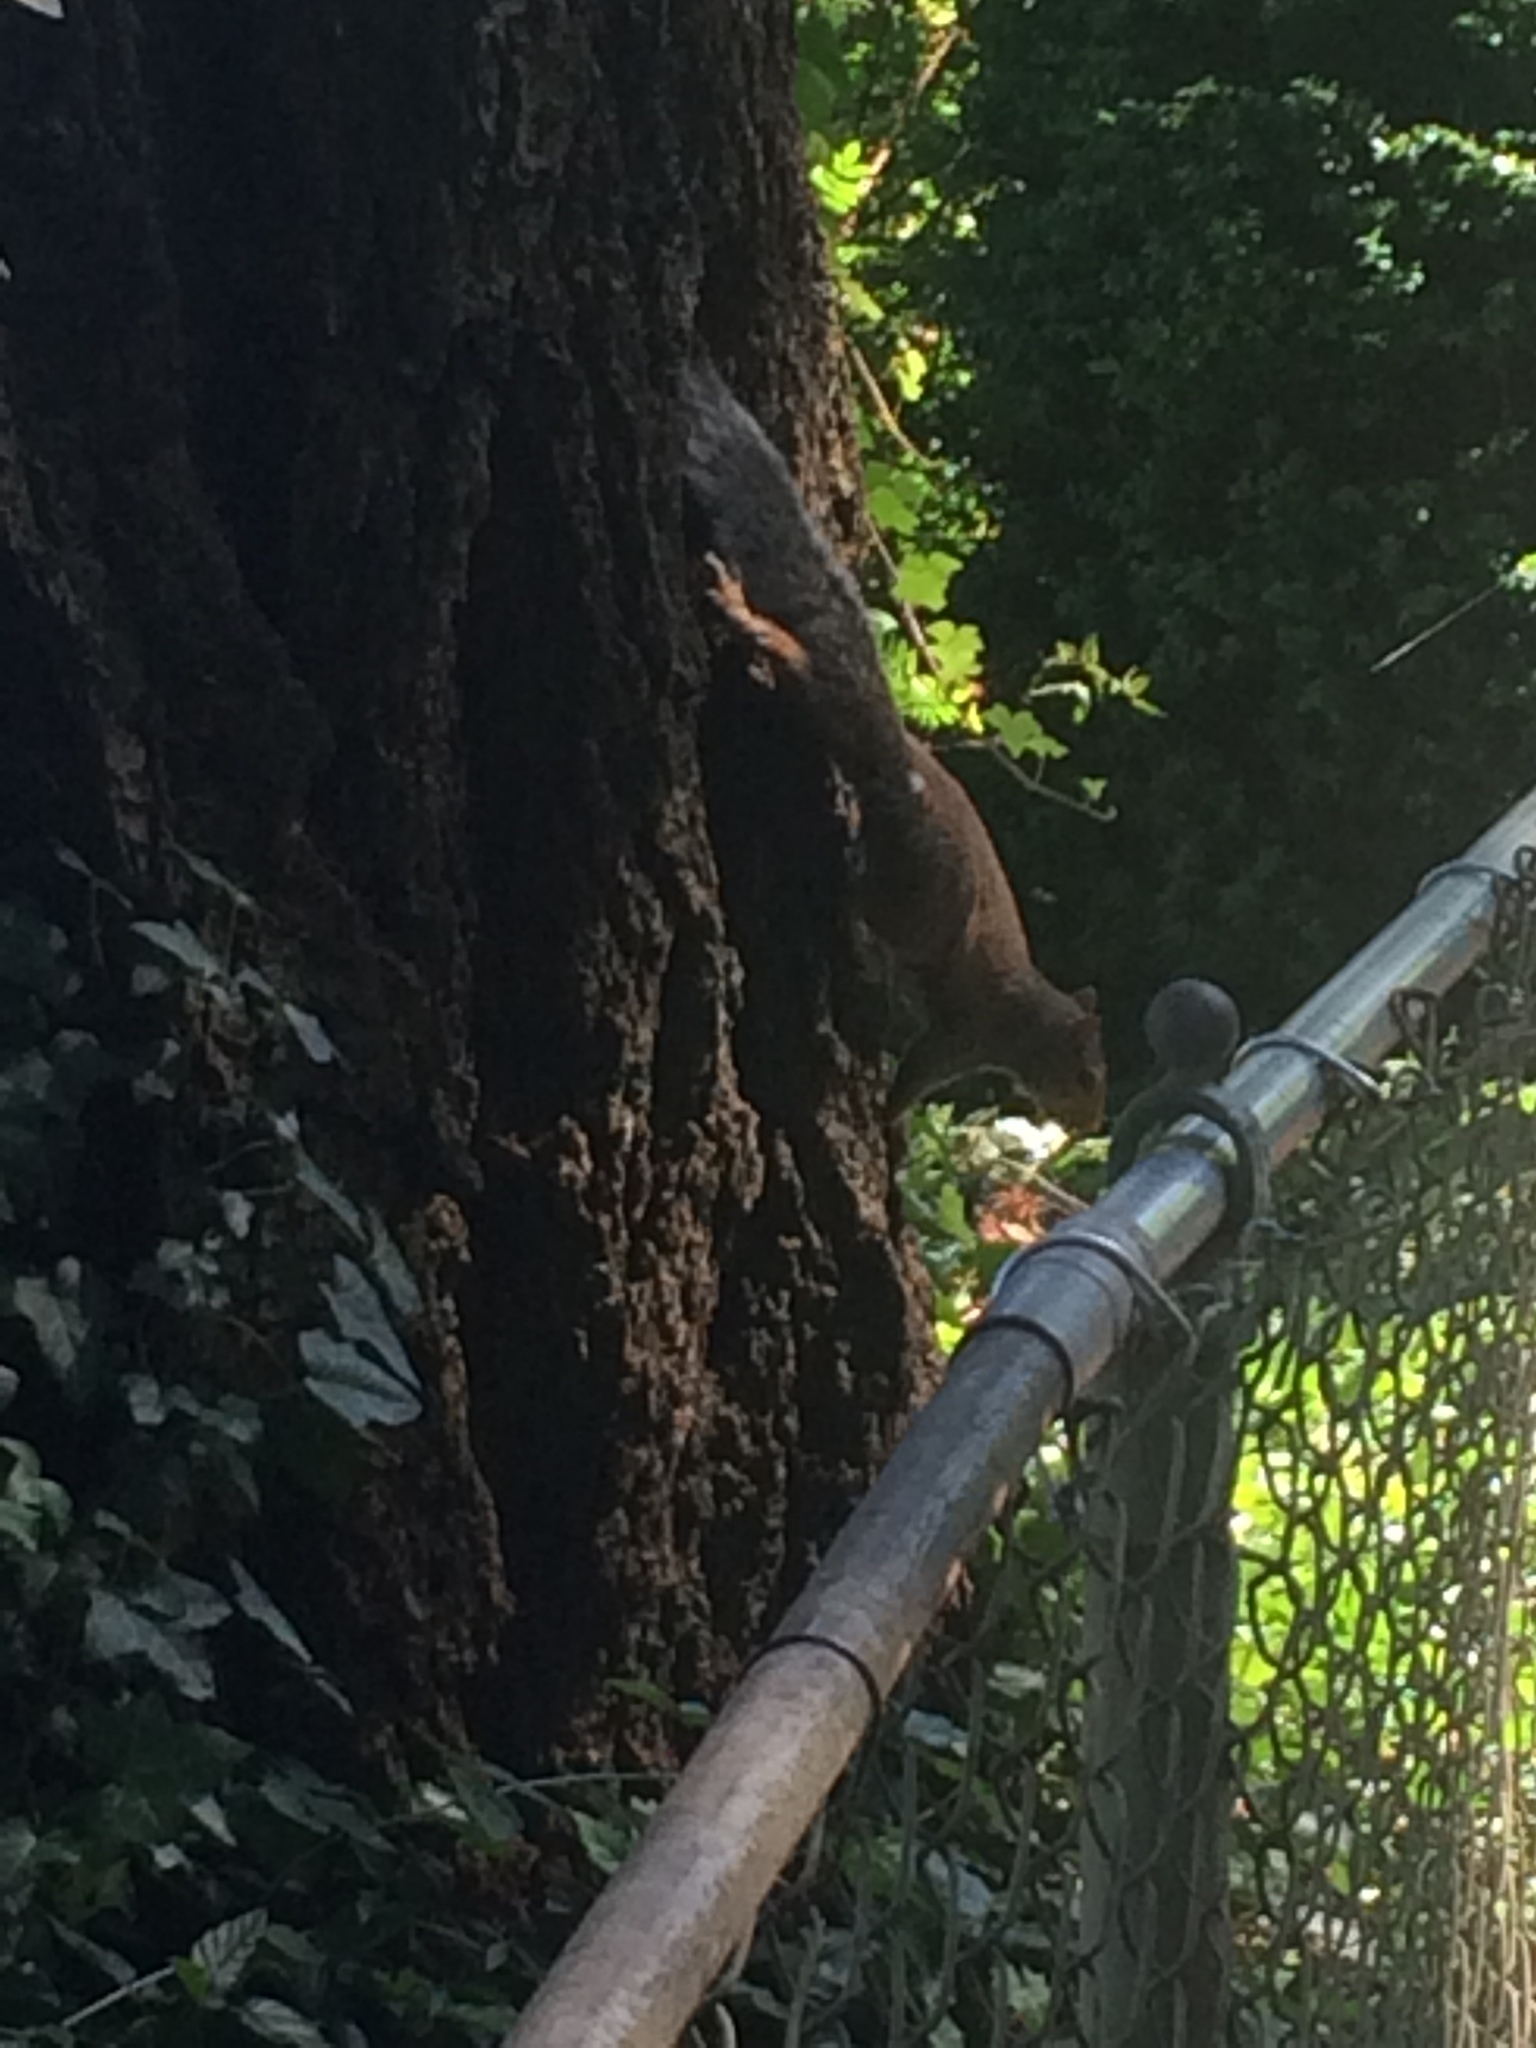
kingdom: Animalia
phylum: Chordata
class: Mammalia
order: Rodentia
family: Sciuridae
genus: Sciurus
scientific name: Sciurus carolinensis
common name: Eastern gray squirrel
